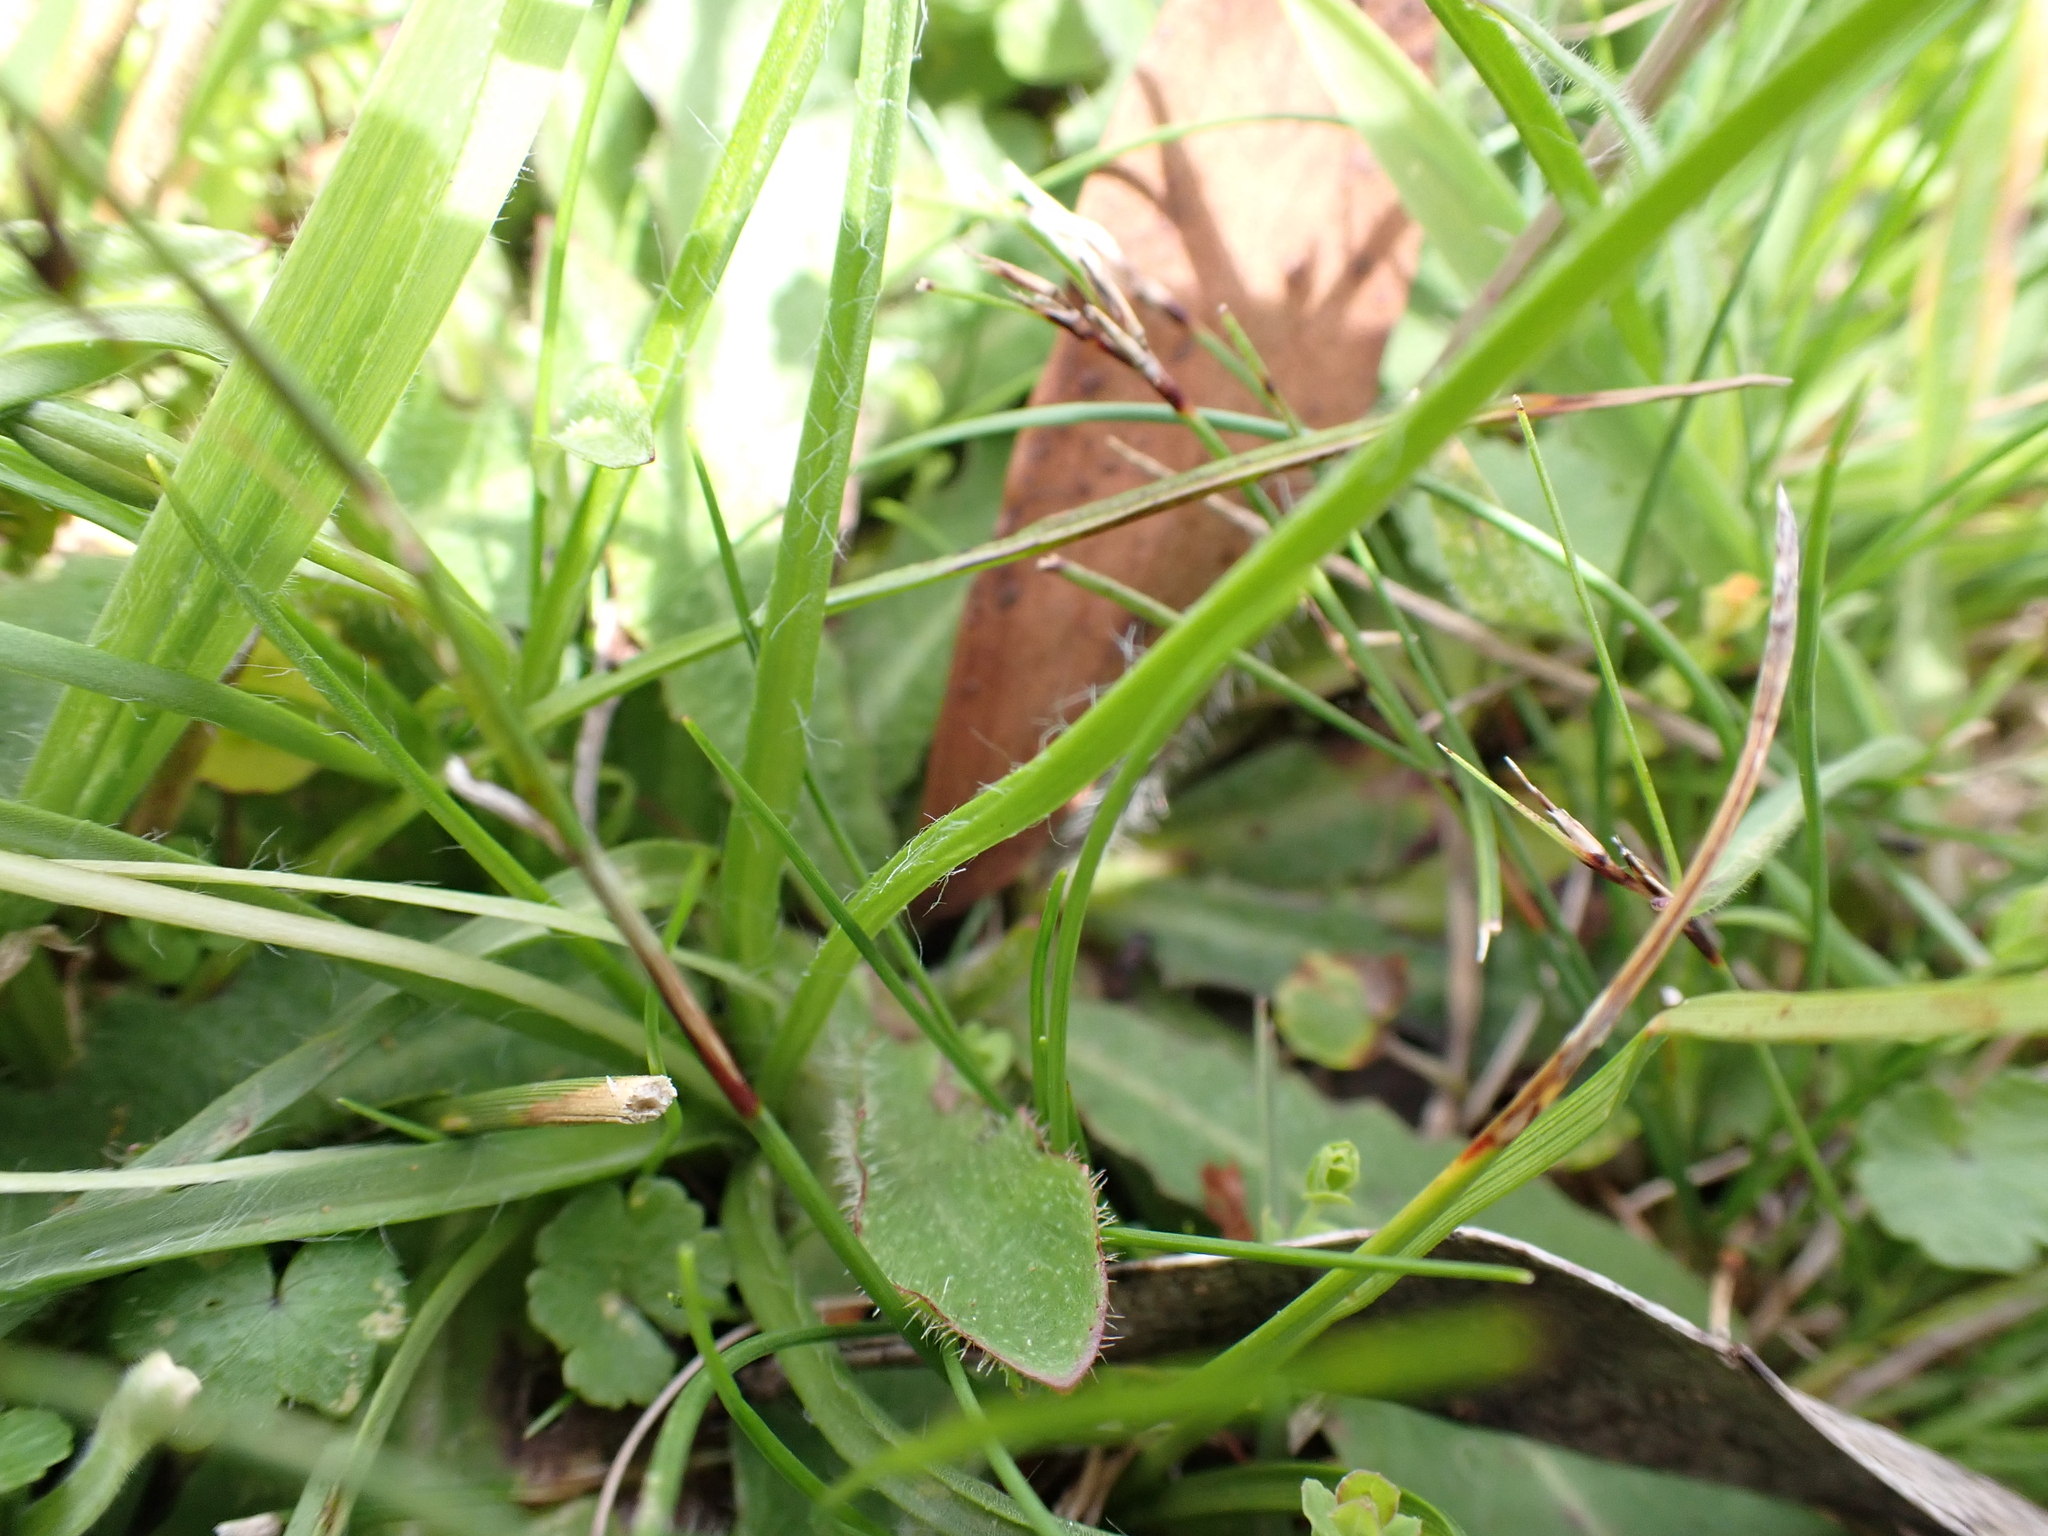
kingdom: Plantae
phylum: Tracheophyta
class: Liliopsida
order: Asparagales
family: Hypoxidaceae
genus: Hypoxis
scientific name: Hypoxis hygrometrica
